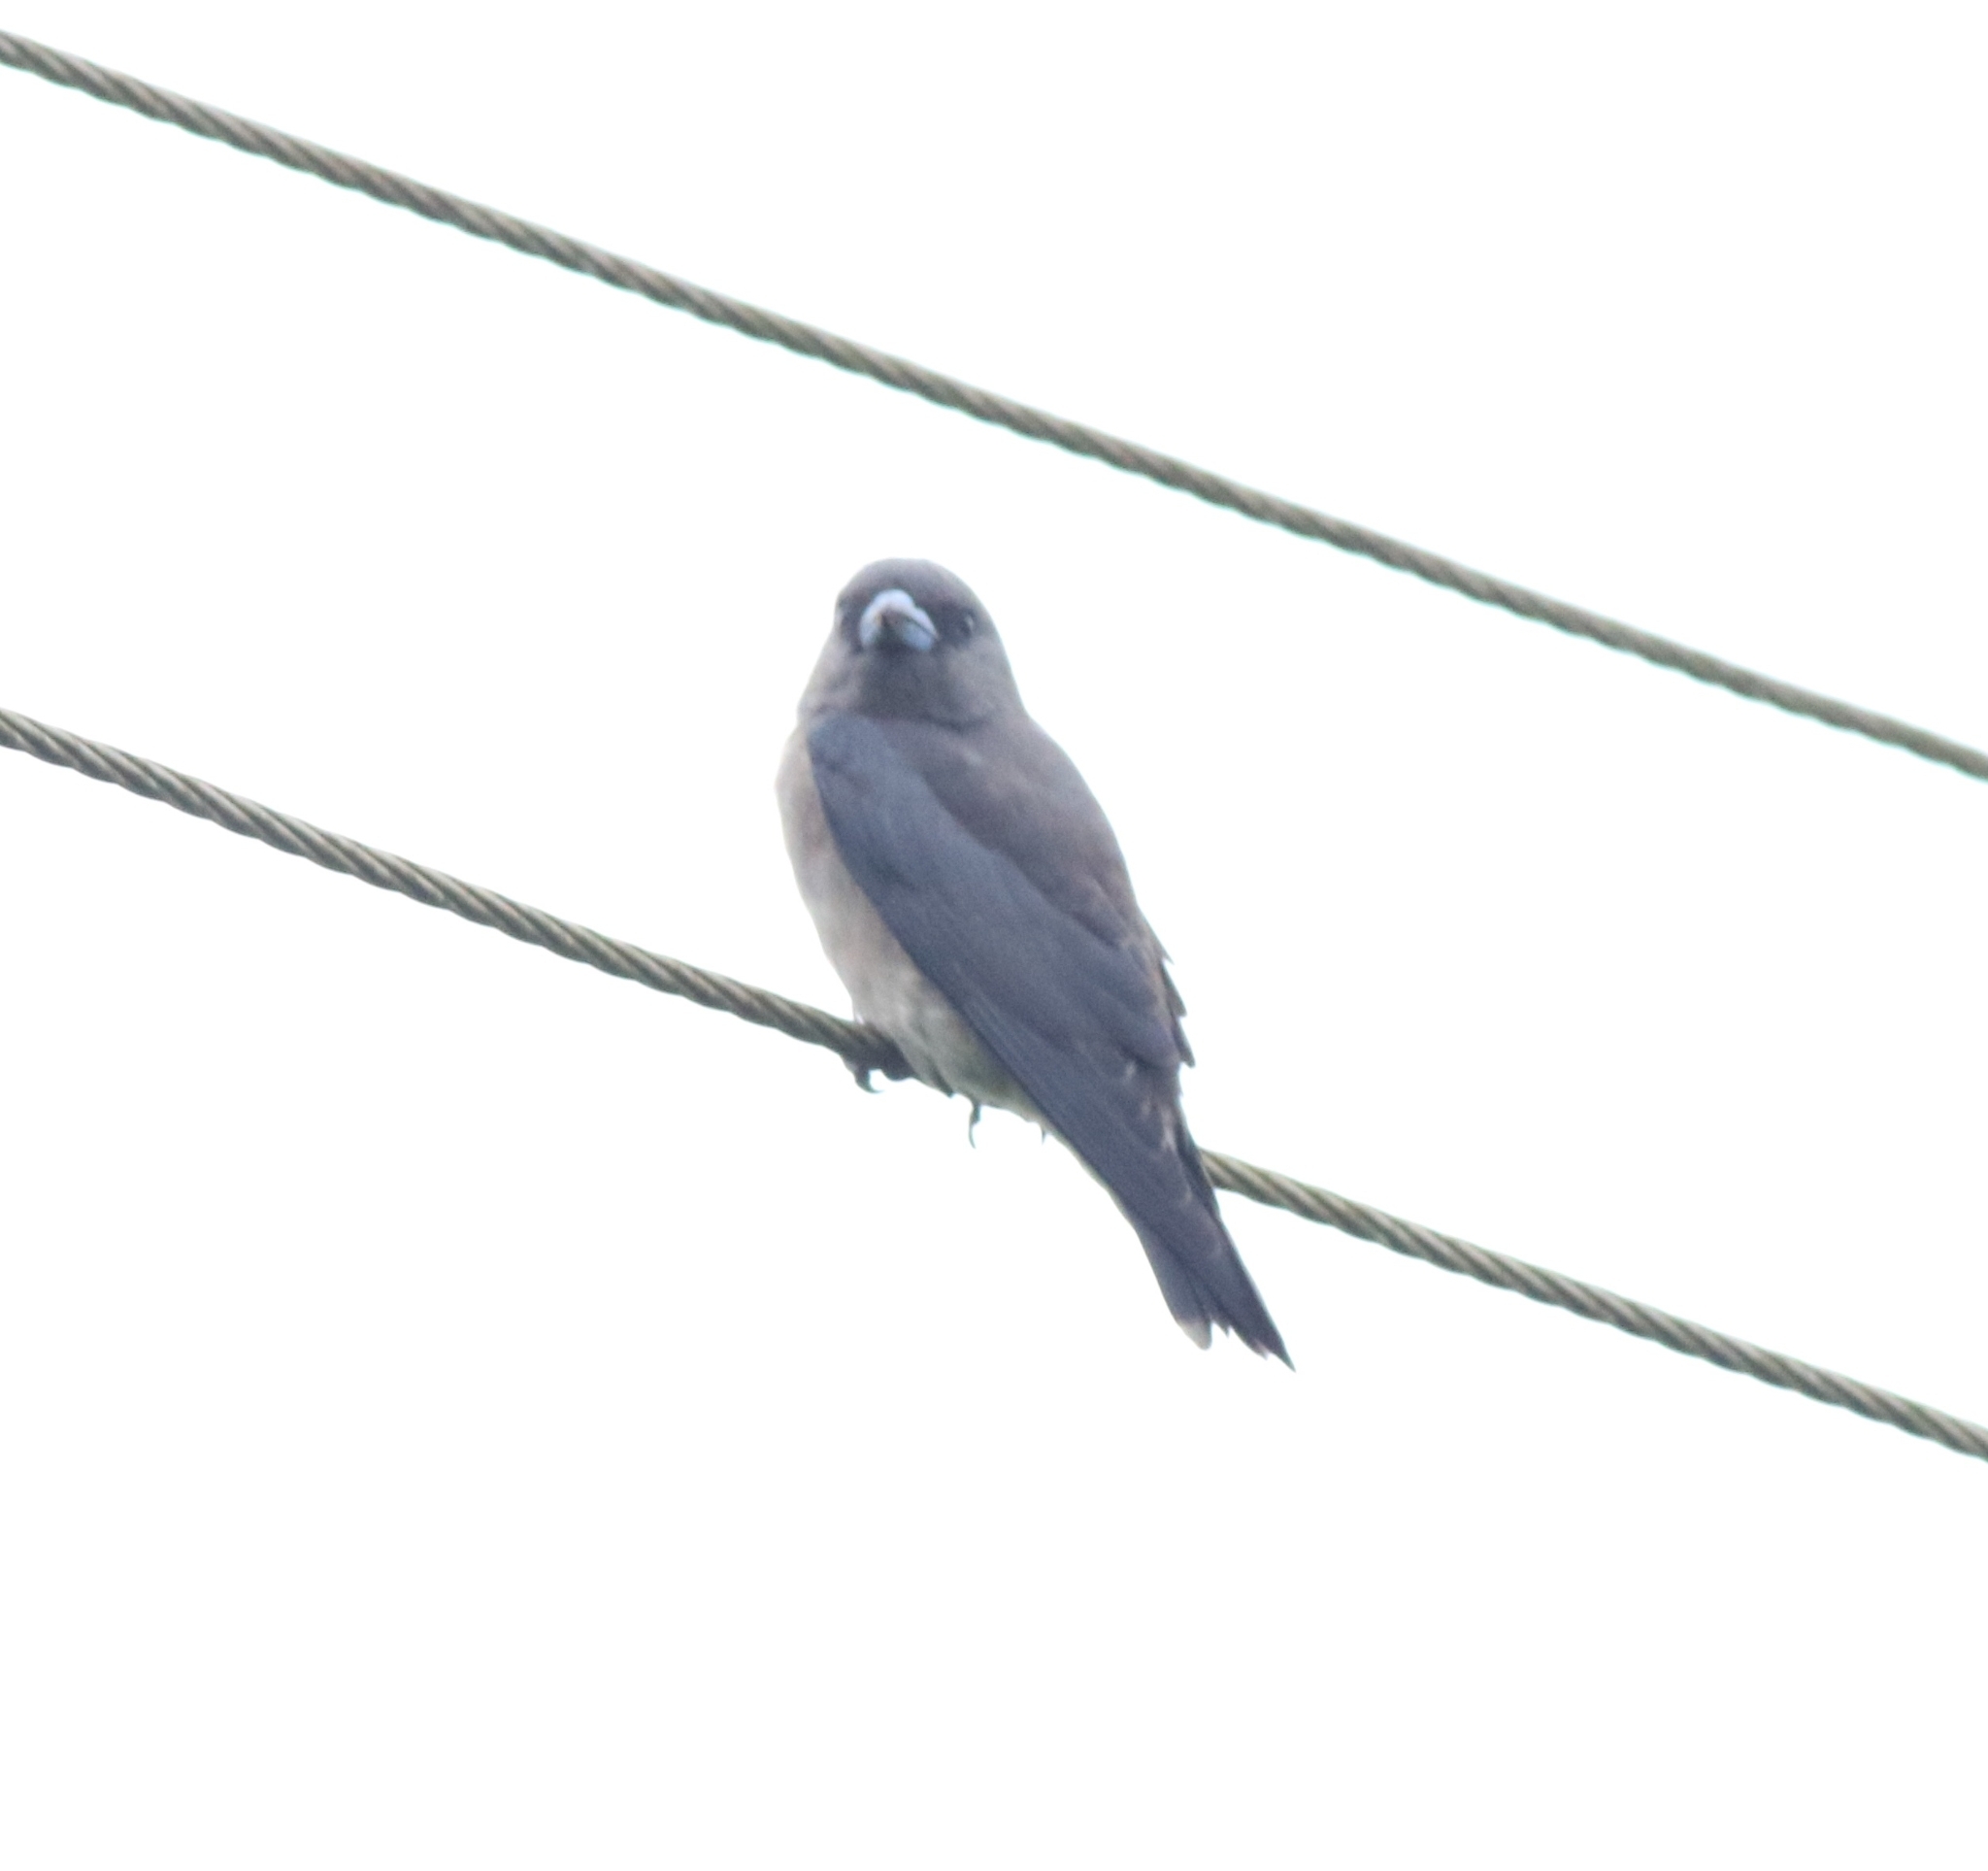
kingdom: Animalia
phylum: Chordata
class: Aves
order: Passeriformes
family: Artamidae
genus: Artamus
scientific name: Artamus fuscus
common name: Ashy woodswallow
